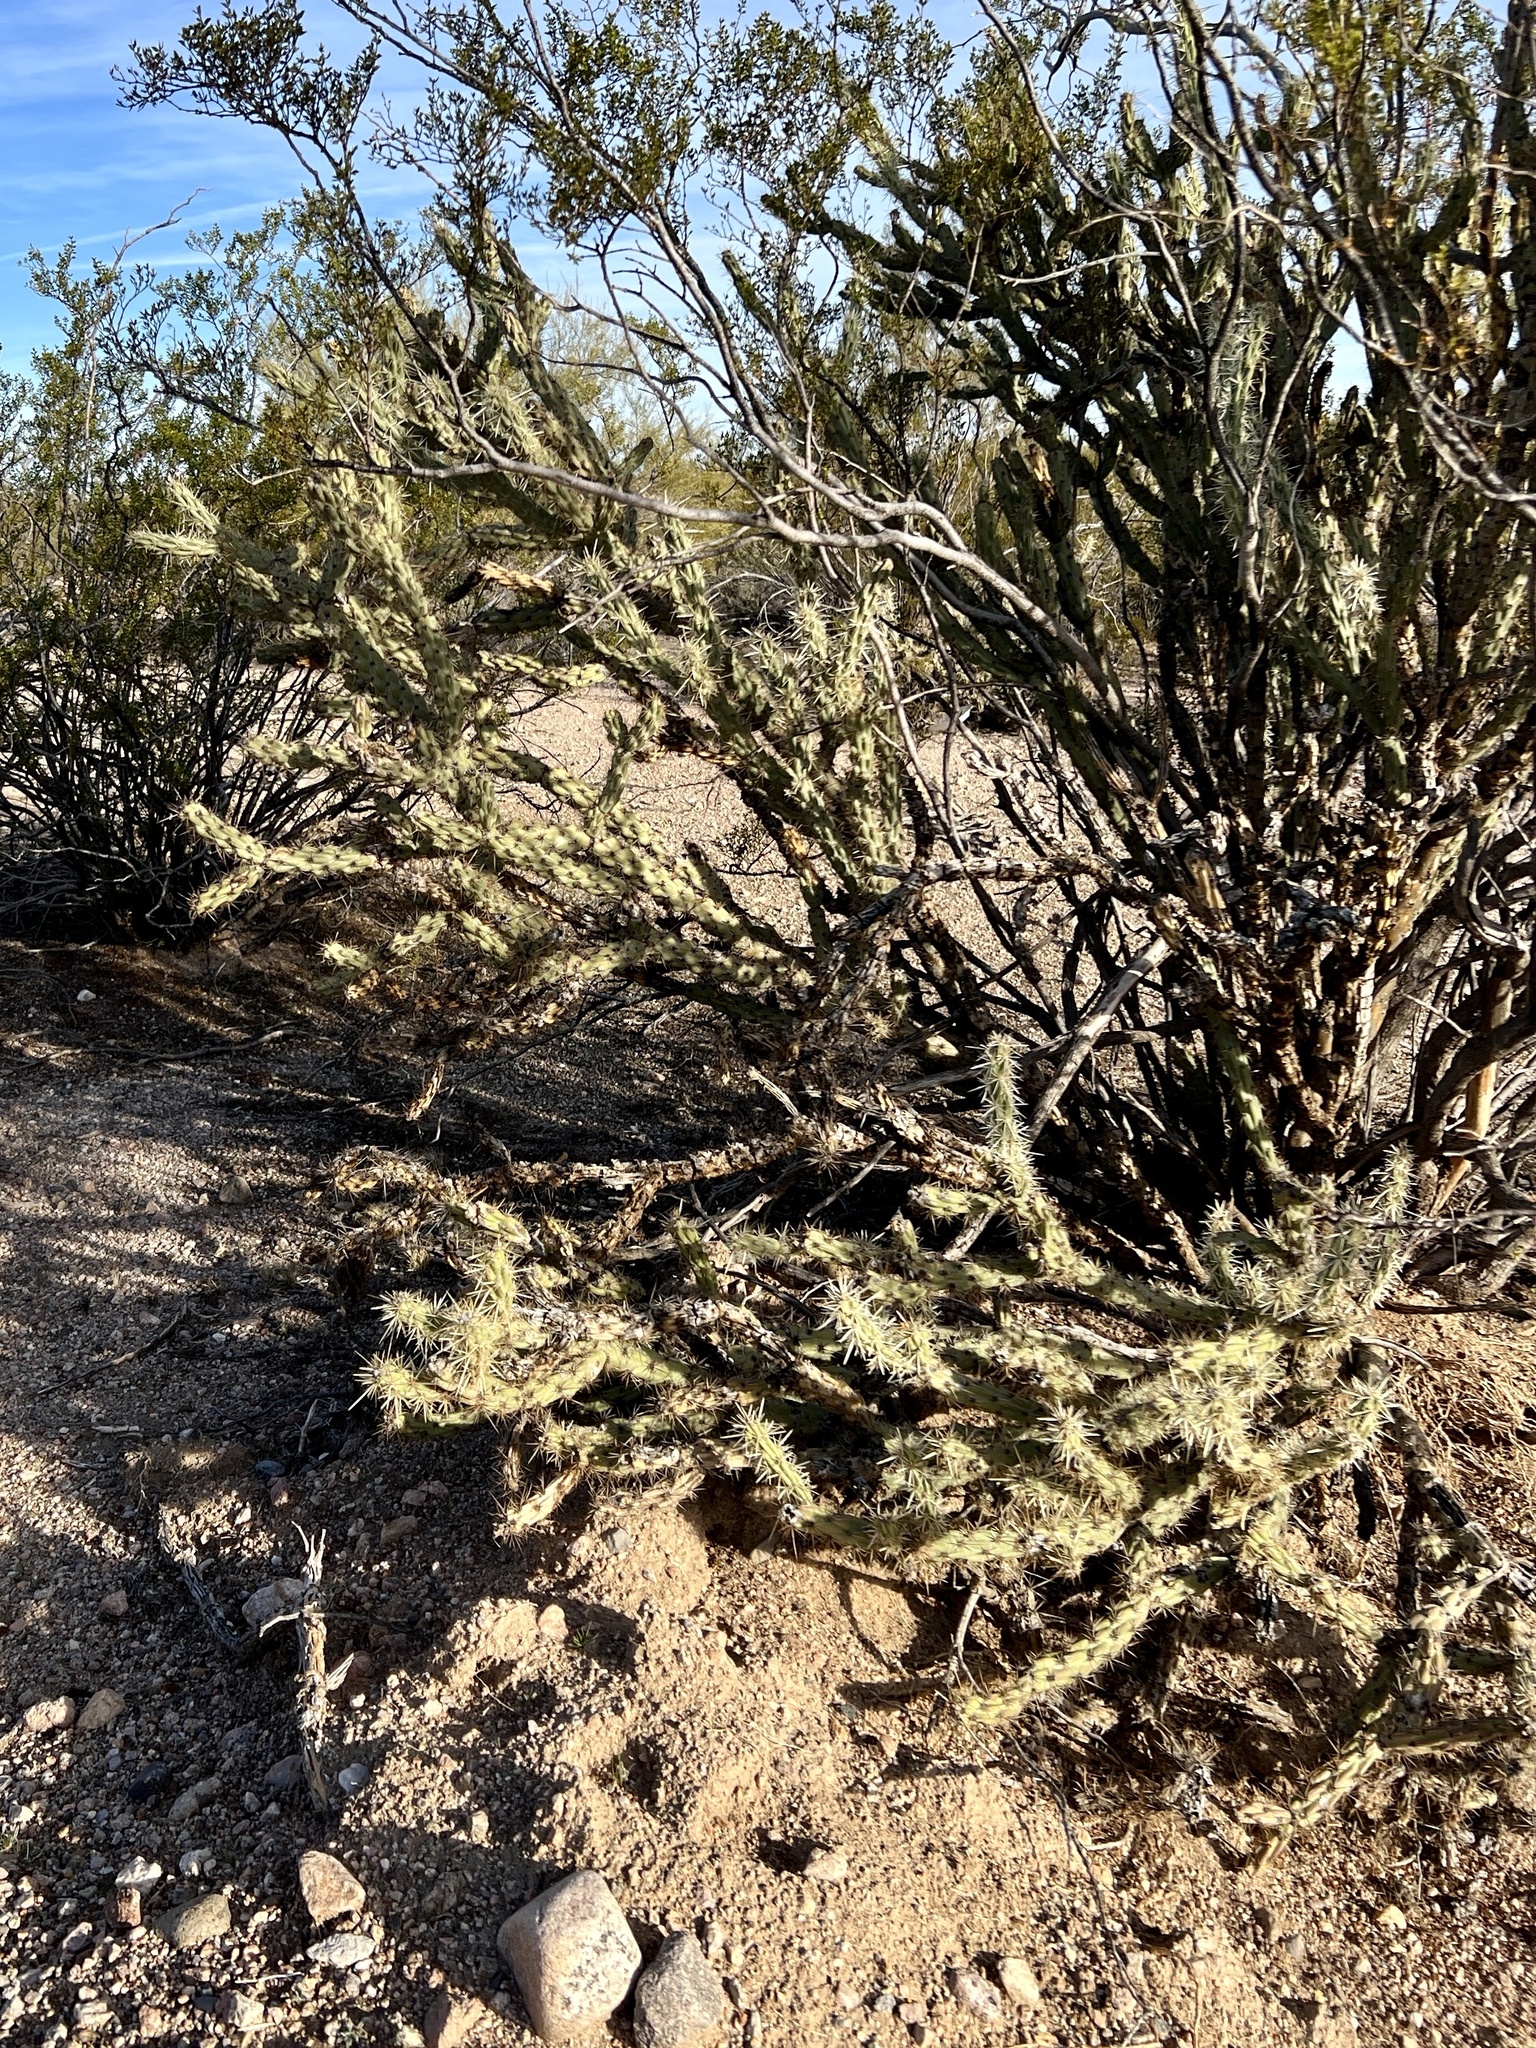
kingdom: Plantae
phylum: Tracheophyta
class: Magnoliopsida
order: Caryophyllales
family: Cactaceae
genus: Cylindropuntia
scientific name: Cylindropuntia acanthocarpa
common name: Buckhorn cholla
